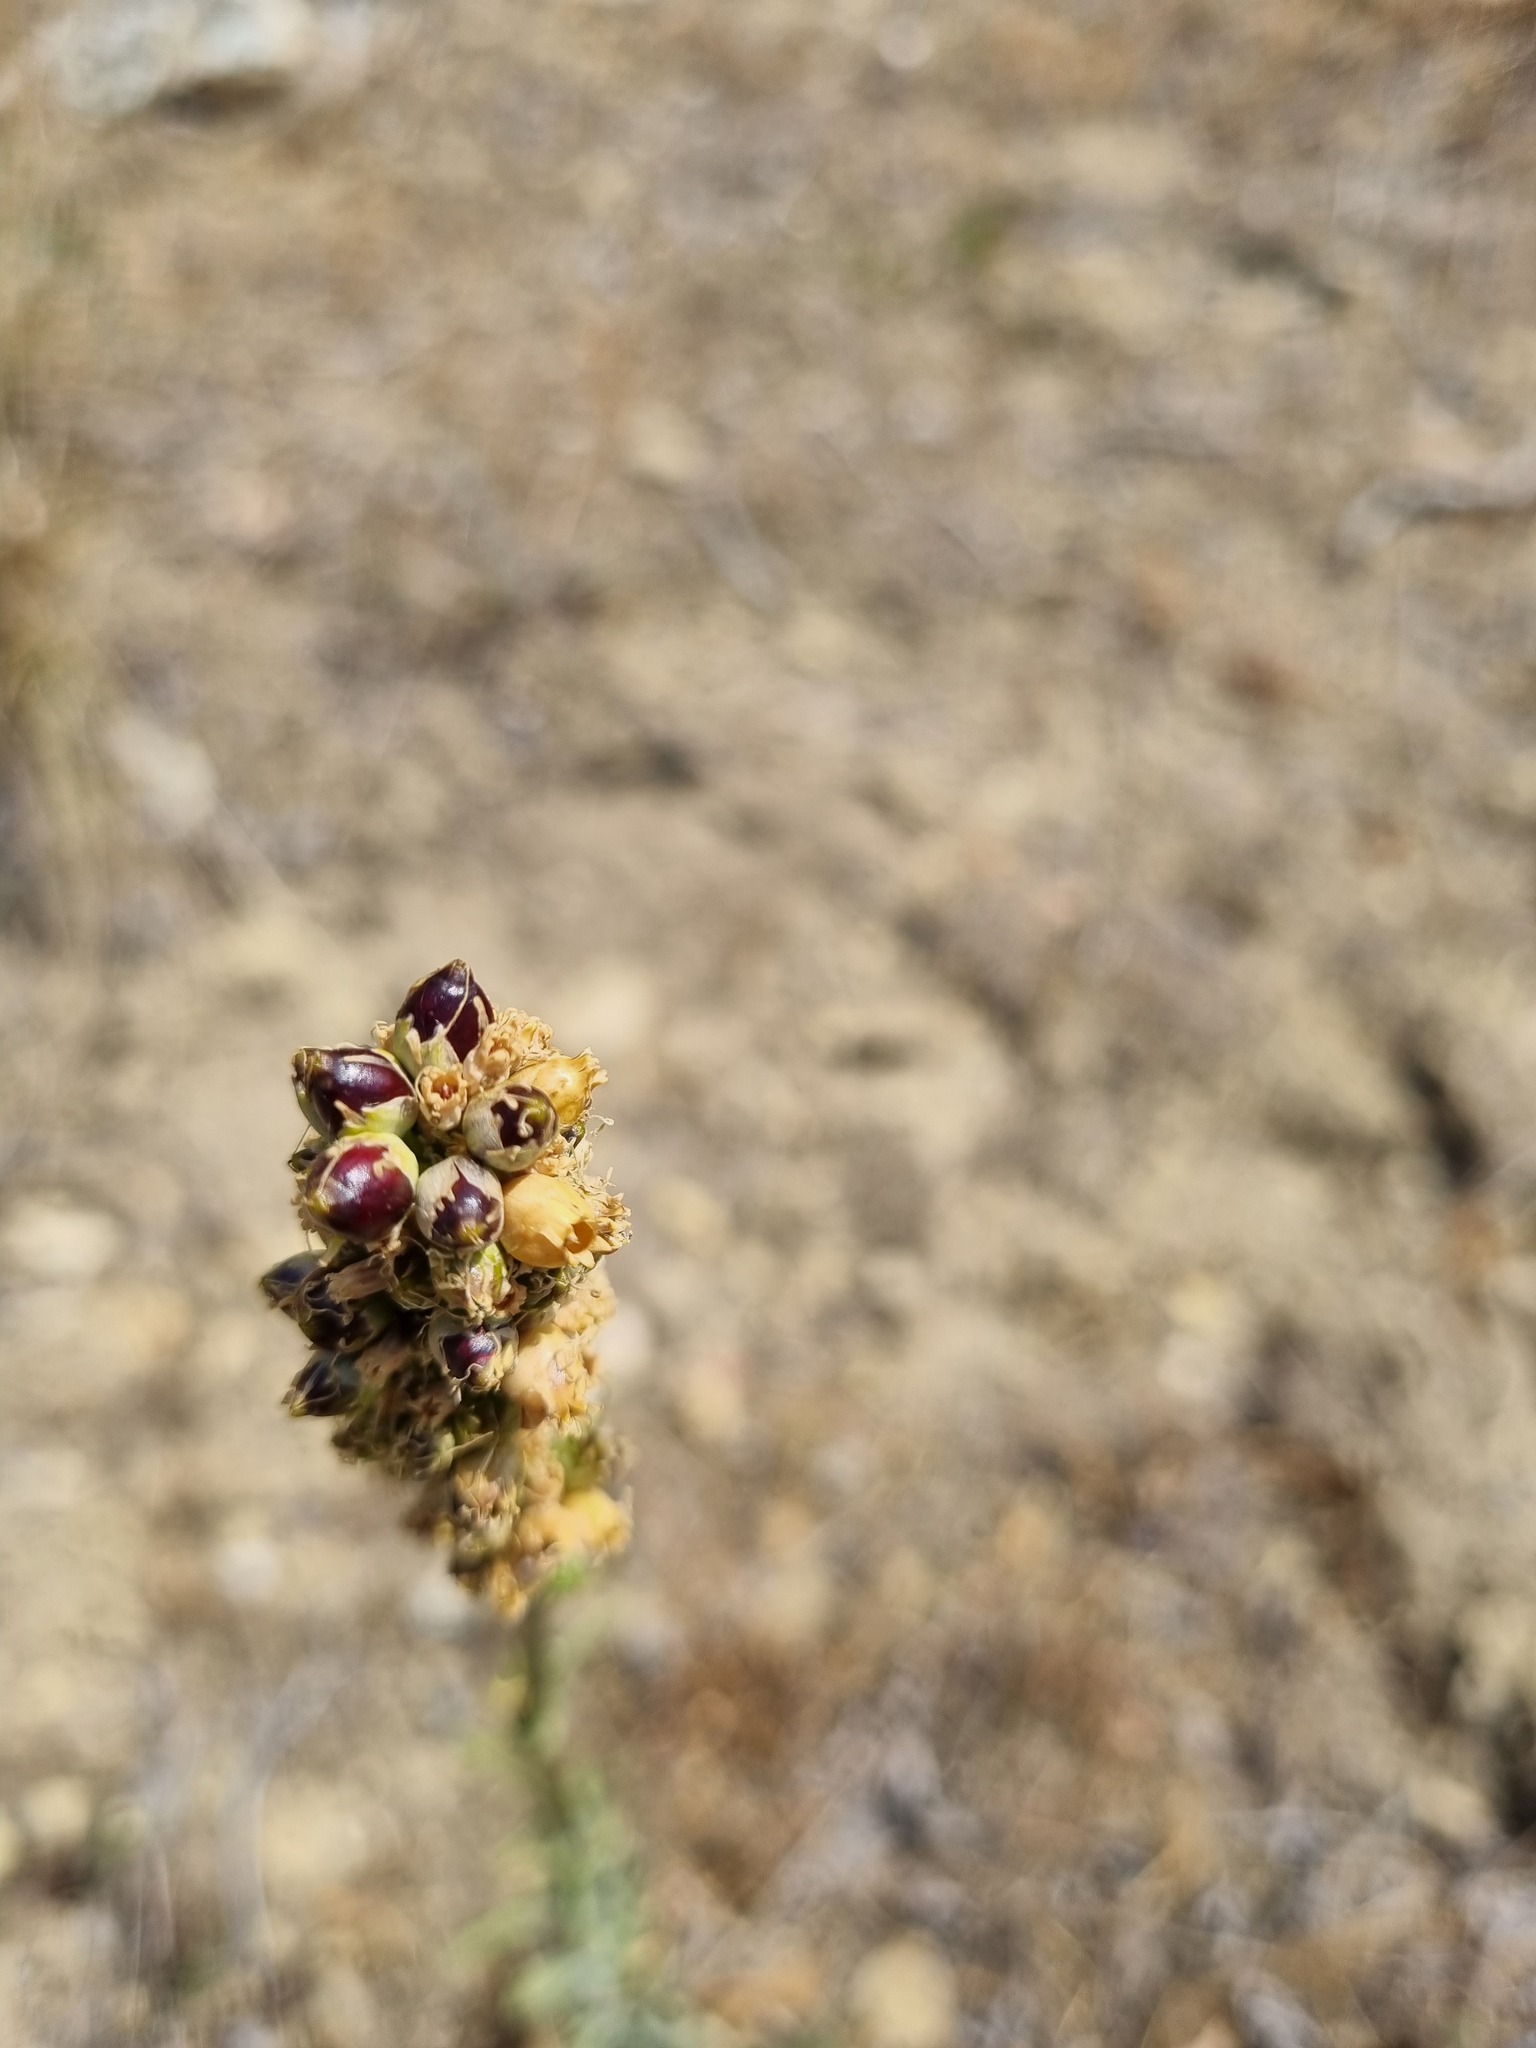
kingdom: Plantae
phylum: Tracheophyta
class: Magnoliopsida
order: Caryophyllales
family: Caryophyllaceae
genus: Silene
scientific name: Silene densiflora
